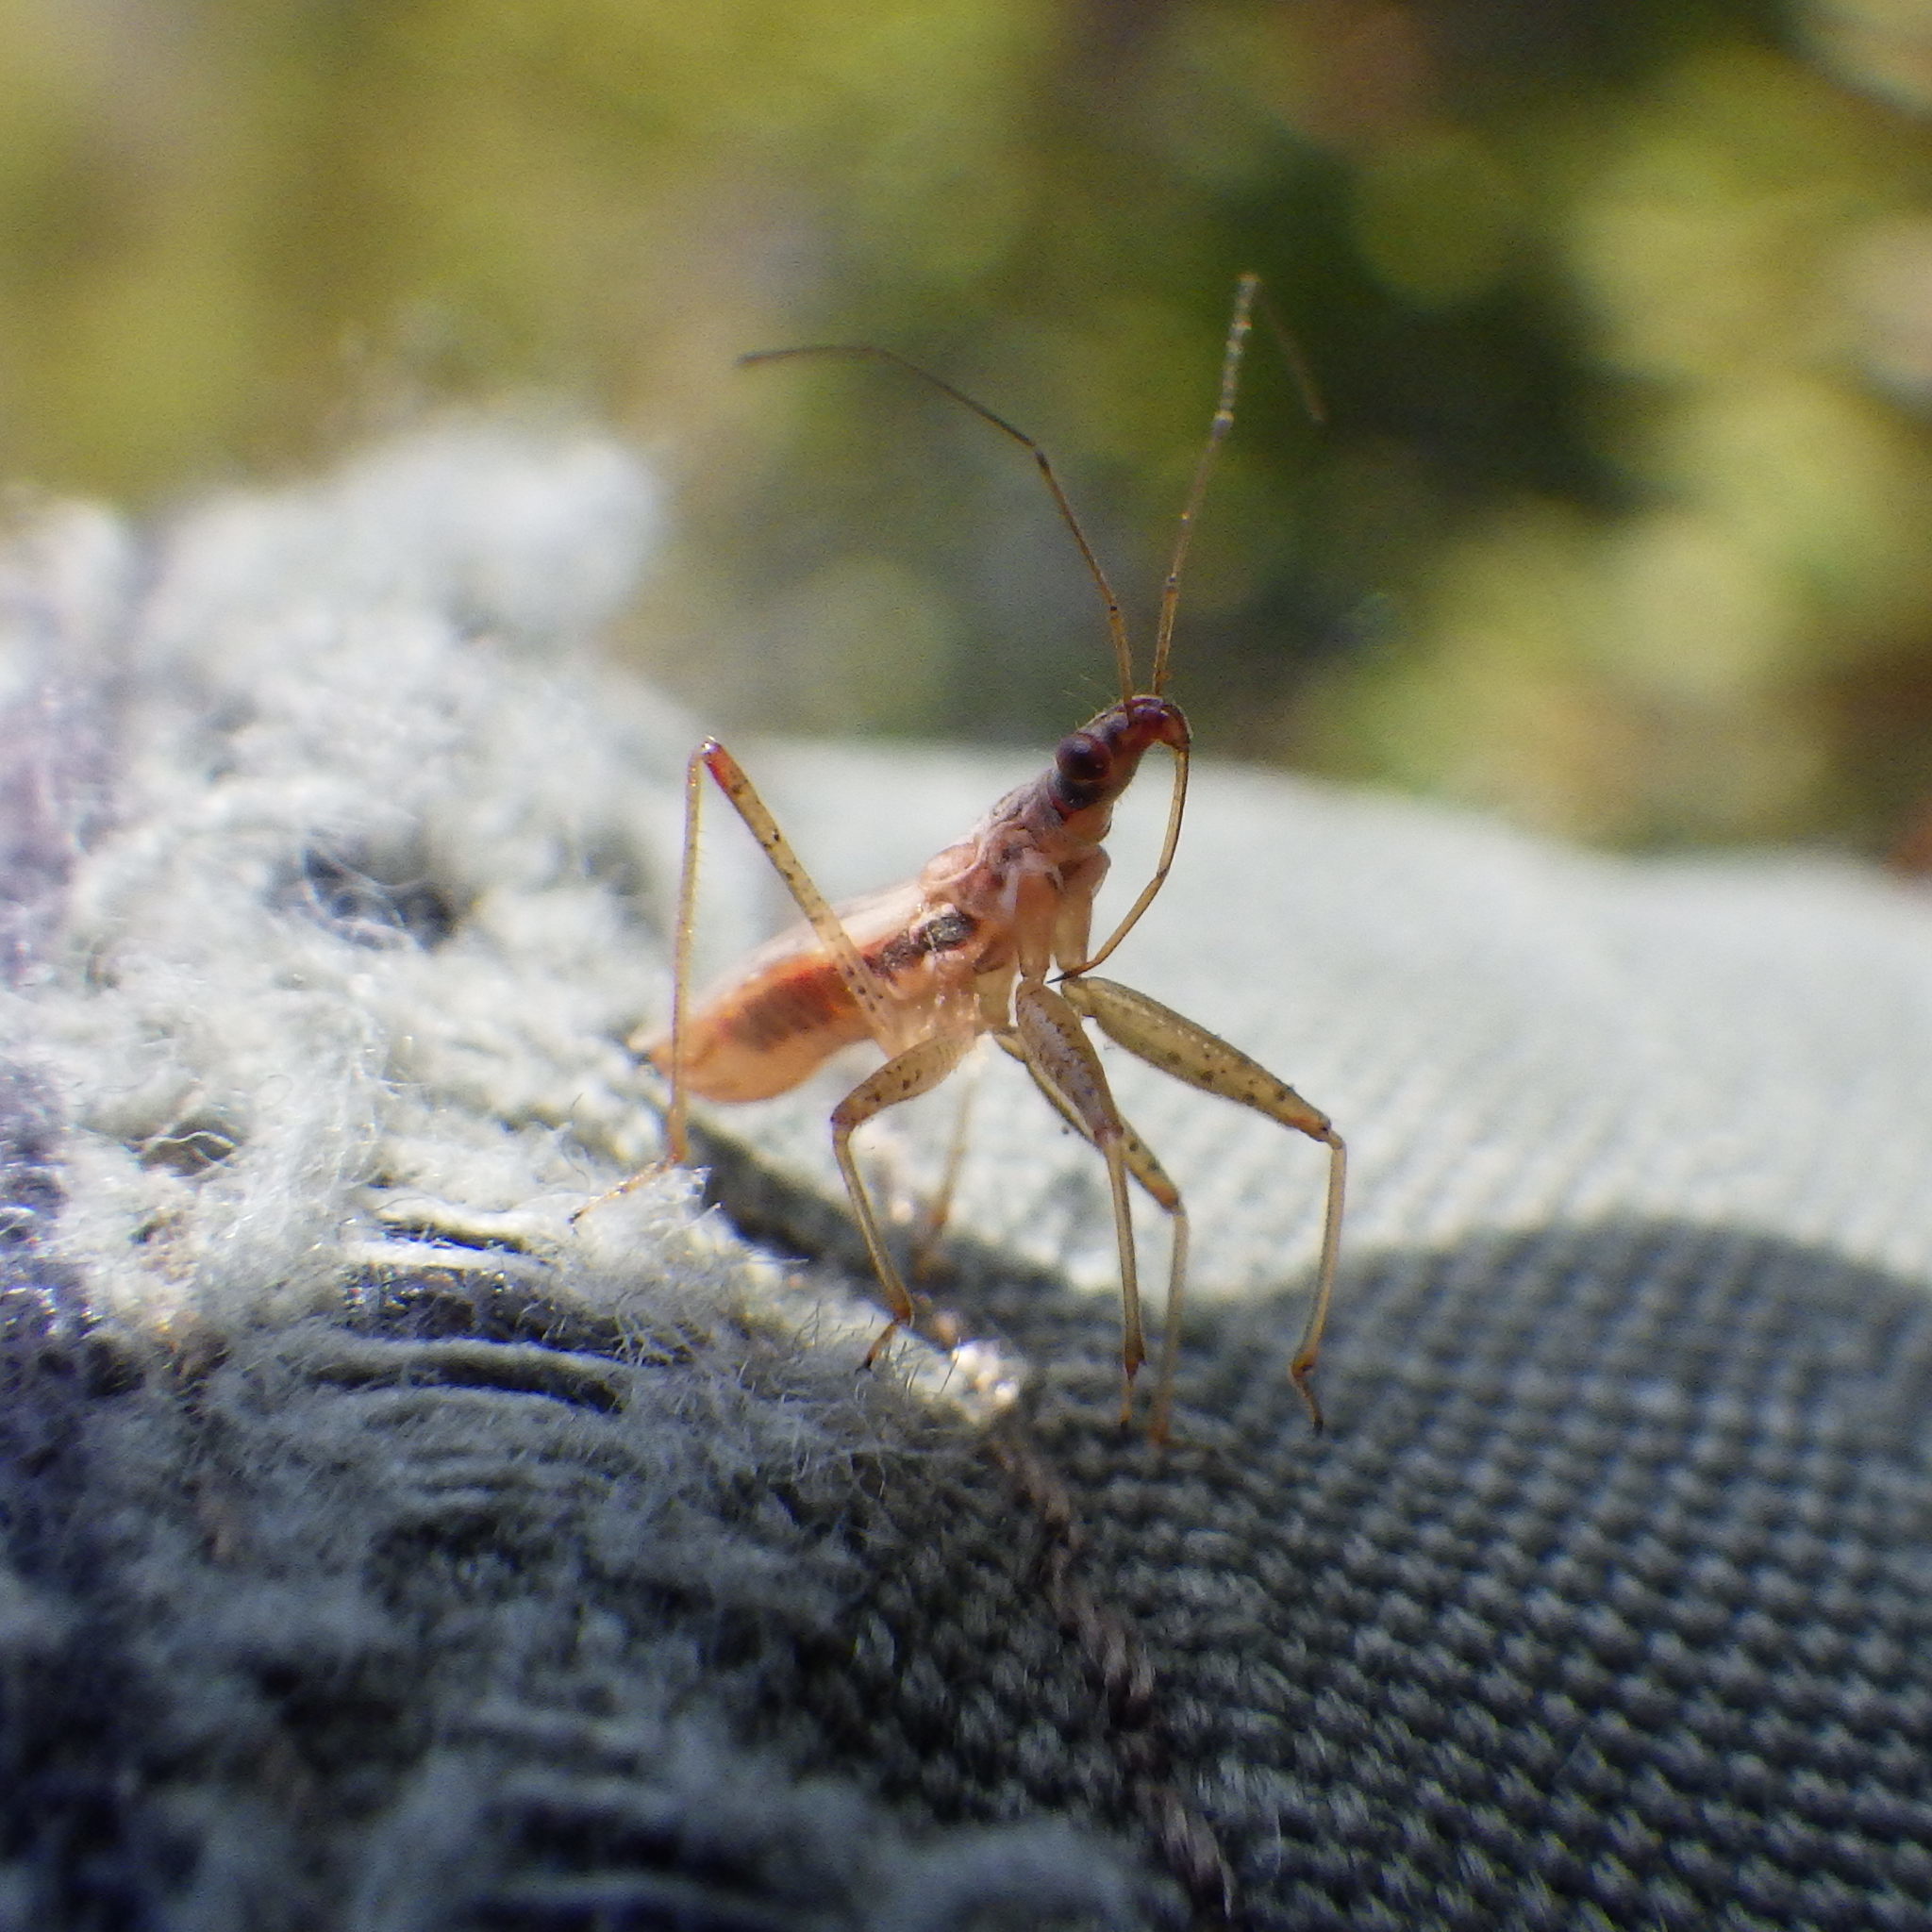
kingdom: Animalia
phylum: Arthropoda
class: Insecta
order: Hemiptera
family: Nabidae
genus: Nabis
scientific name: Nabis rufusculus
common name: Short-winged nabis
